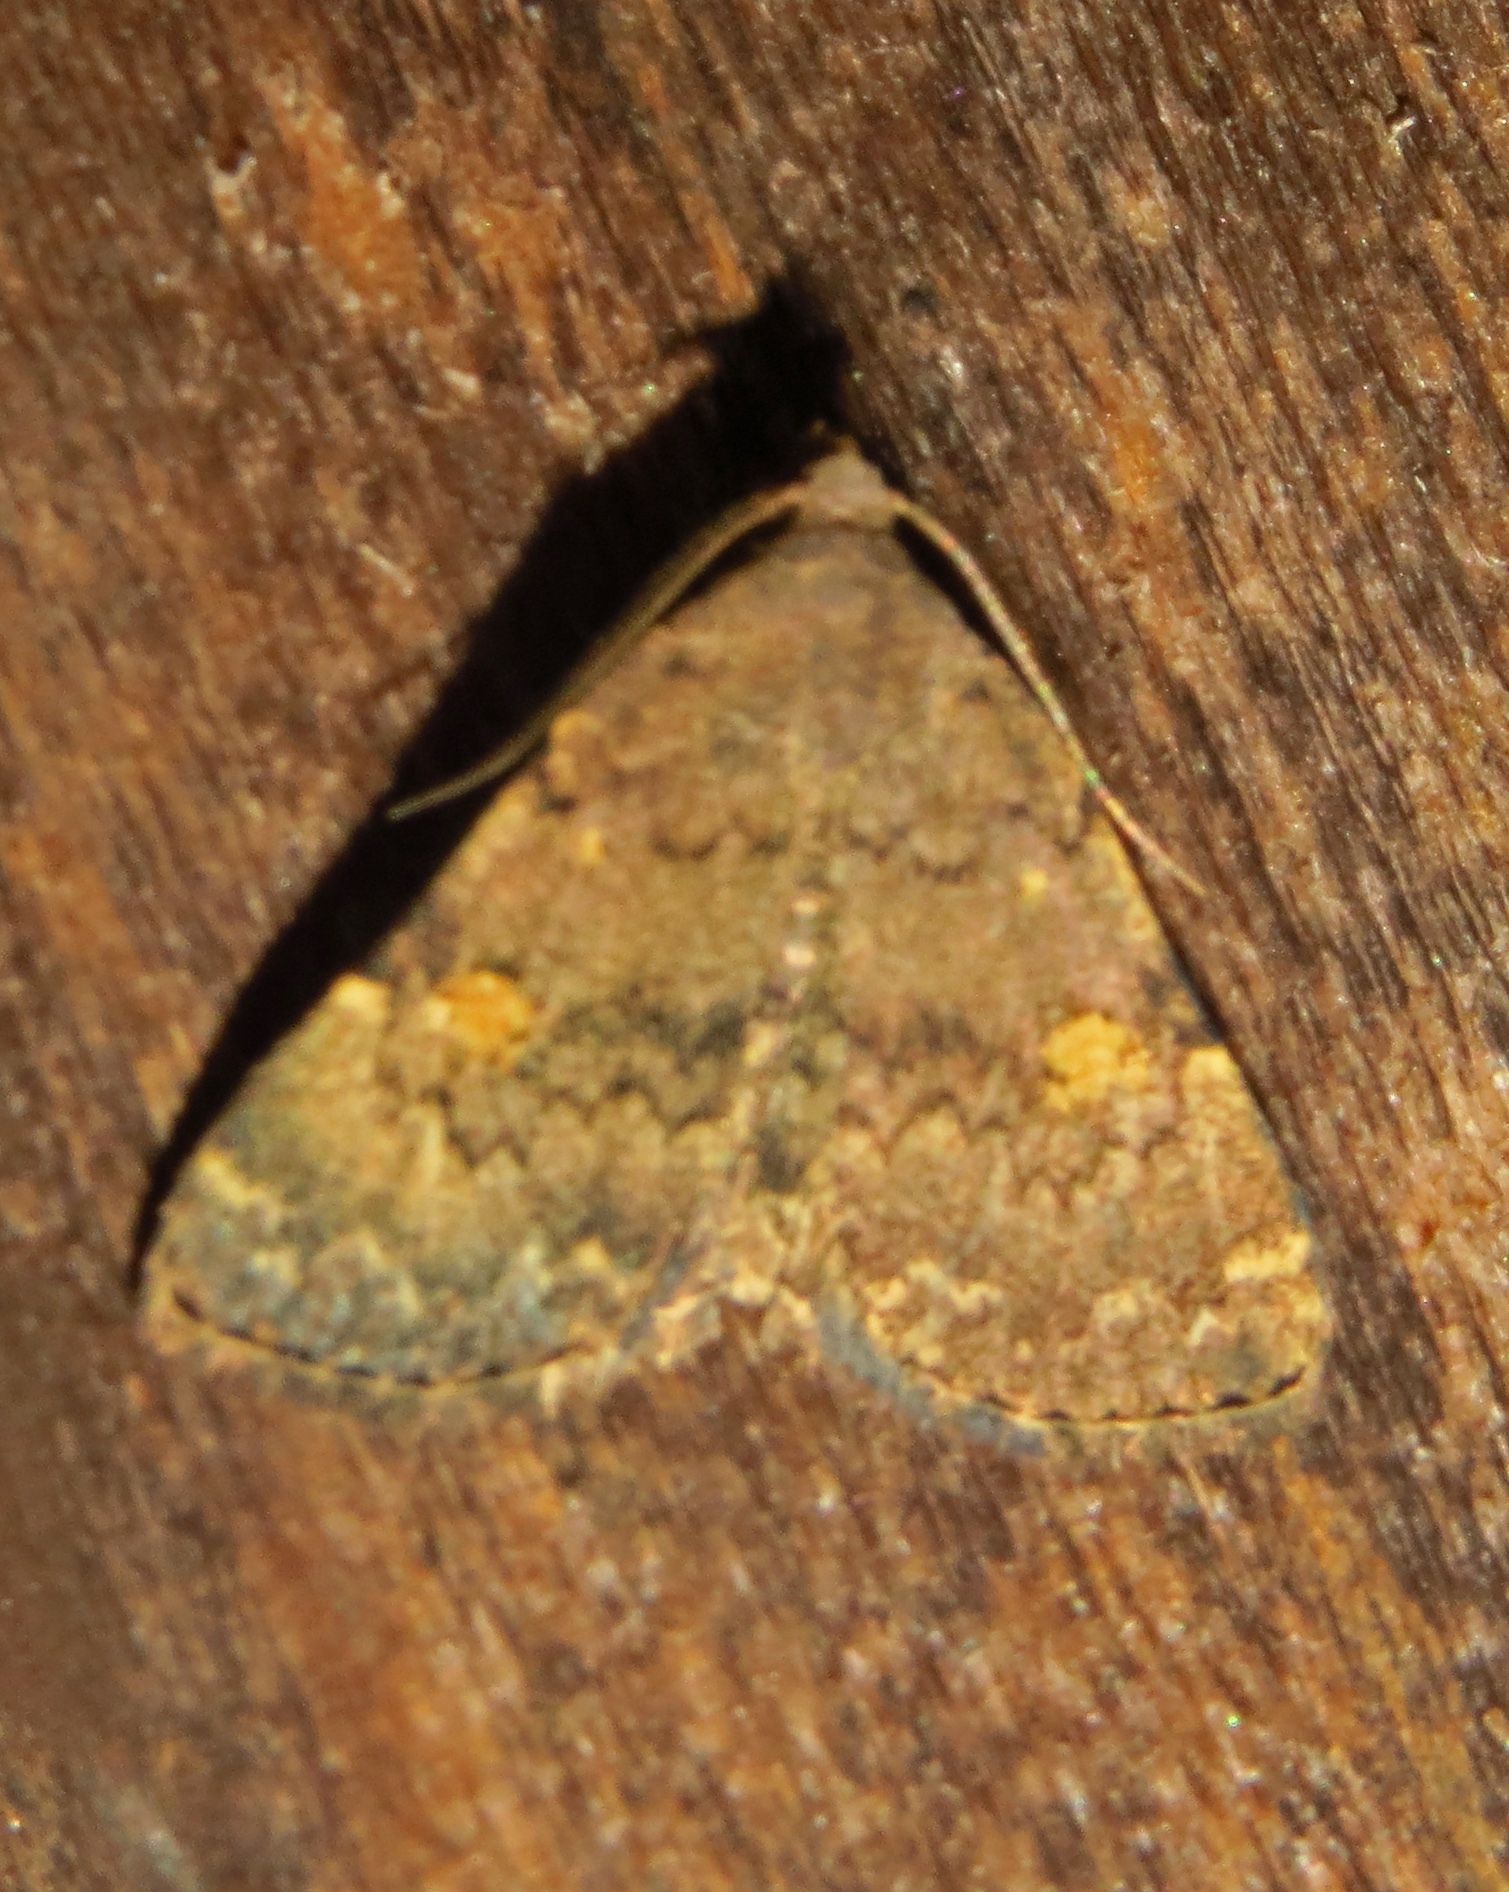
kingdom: Animalia
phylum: Arthropoda
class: Insecta
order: Lepidoptera
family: Erebidae
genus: Idia
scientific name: Idia americalis
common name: American idia moth
